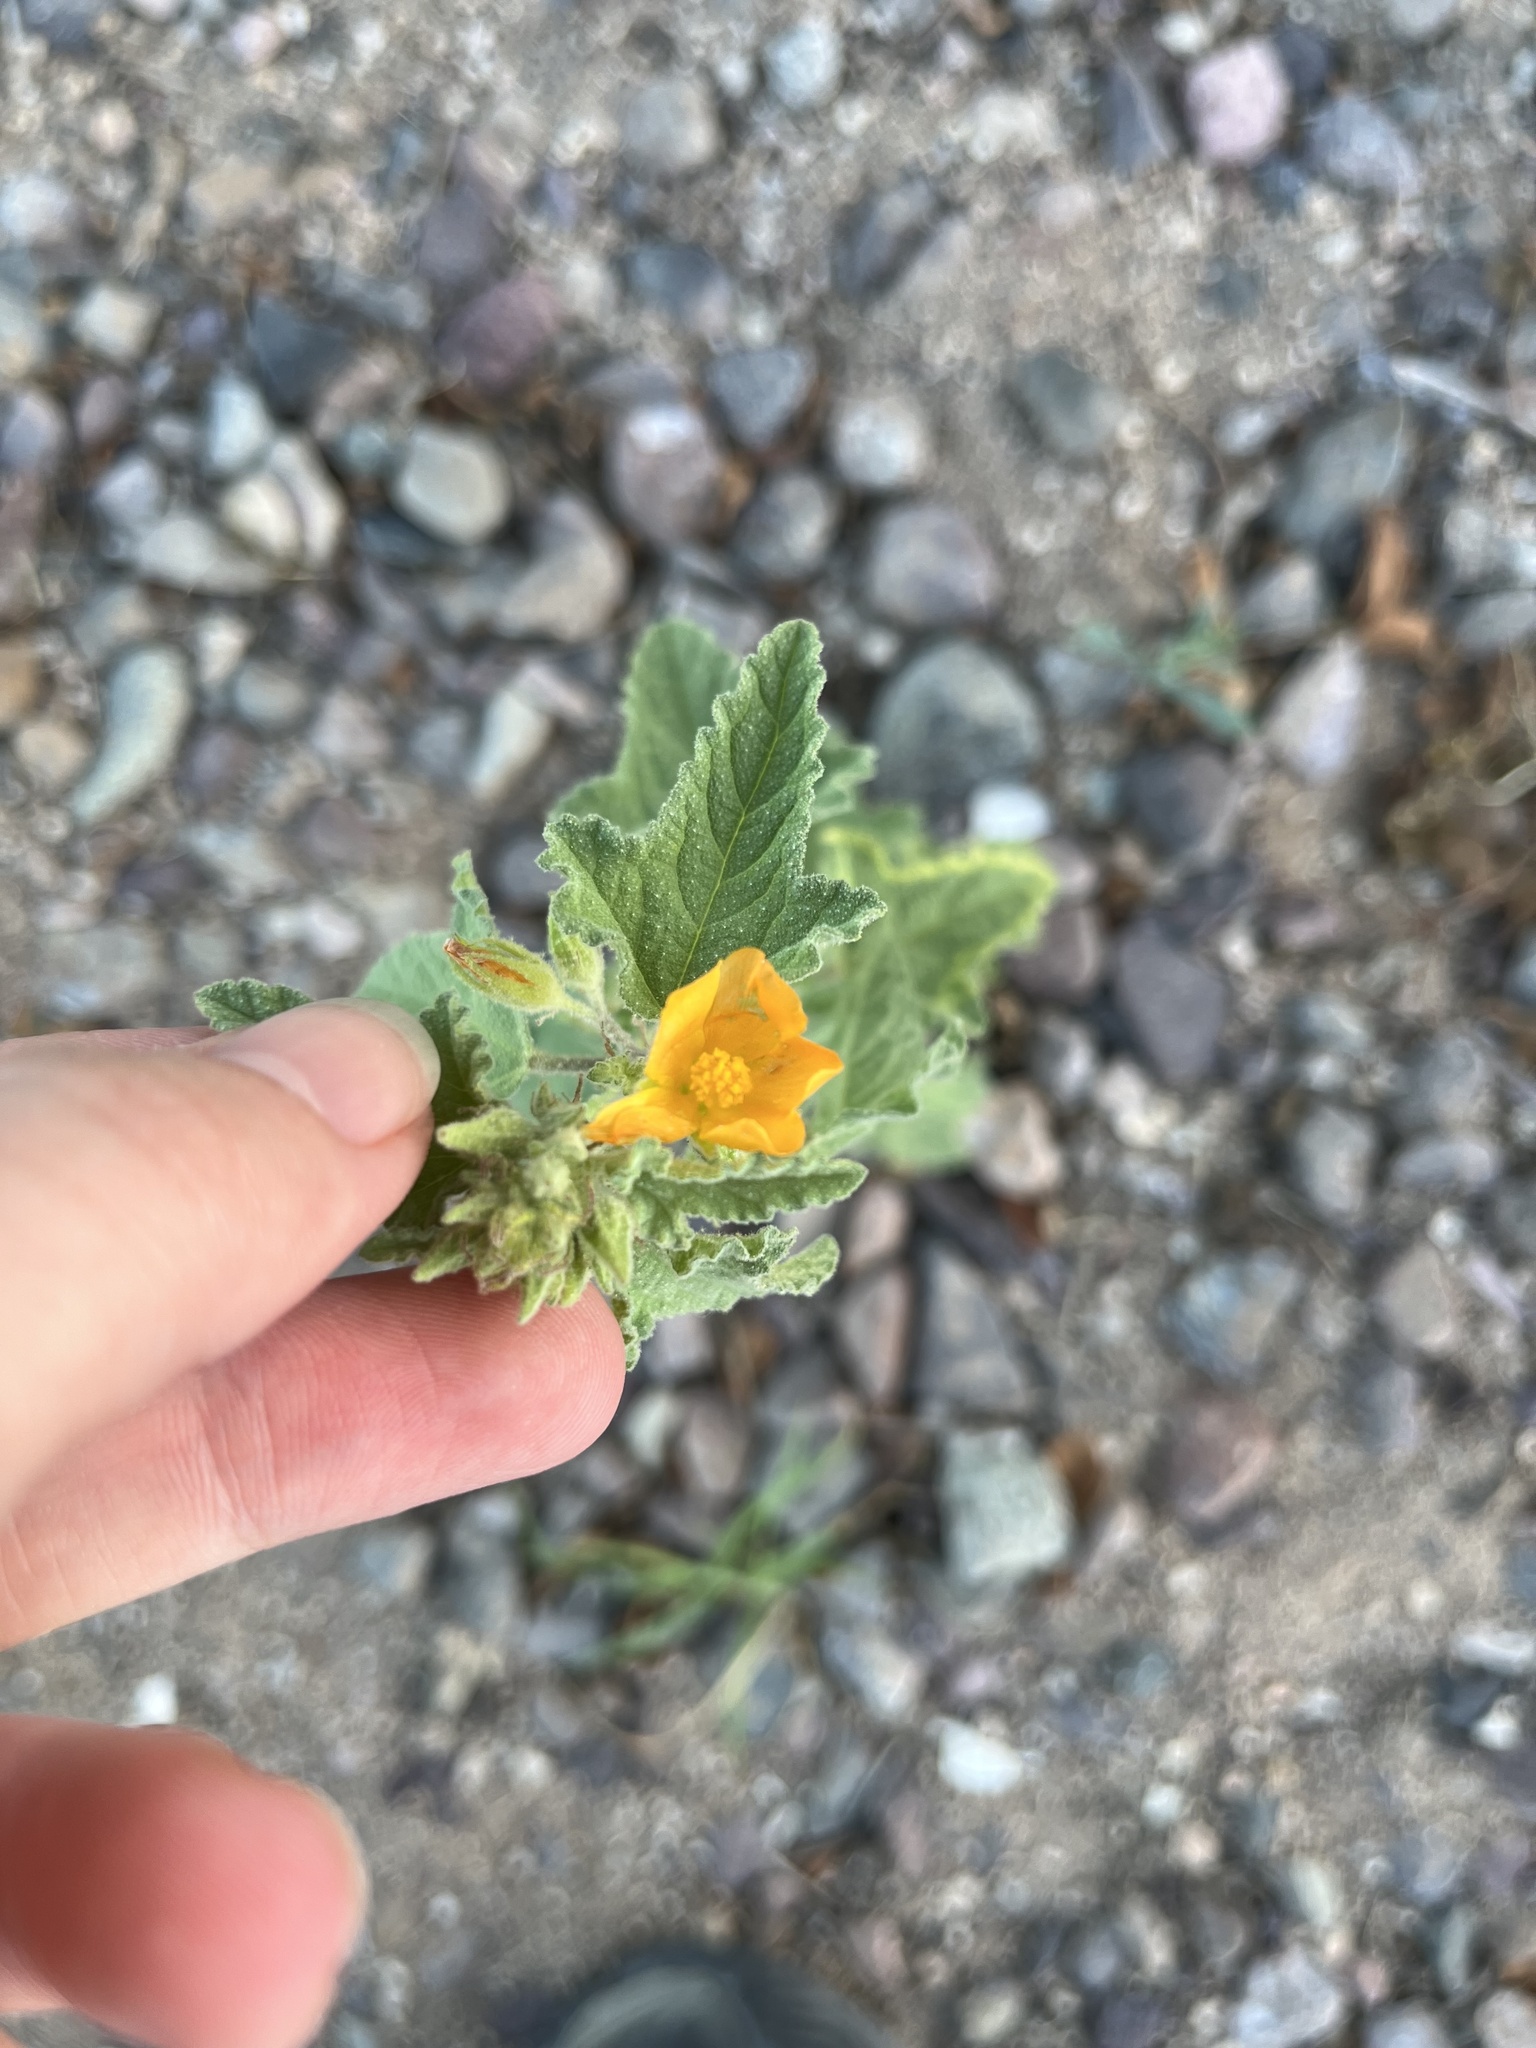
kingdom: Plantae
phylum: Tracheophyta
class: Magnoliopsida
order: Malvales
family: Malvaceae
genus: Sphaeralcea
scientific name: Sphaeralcea coulteri
